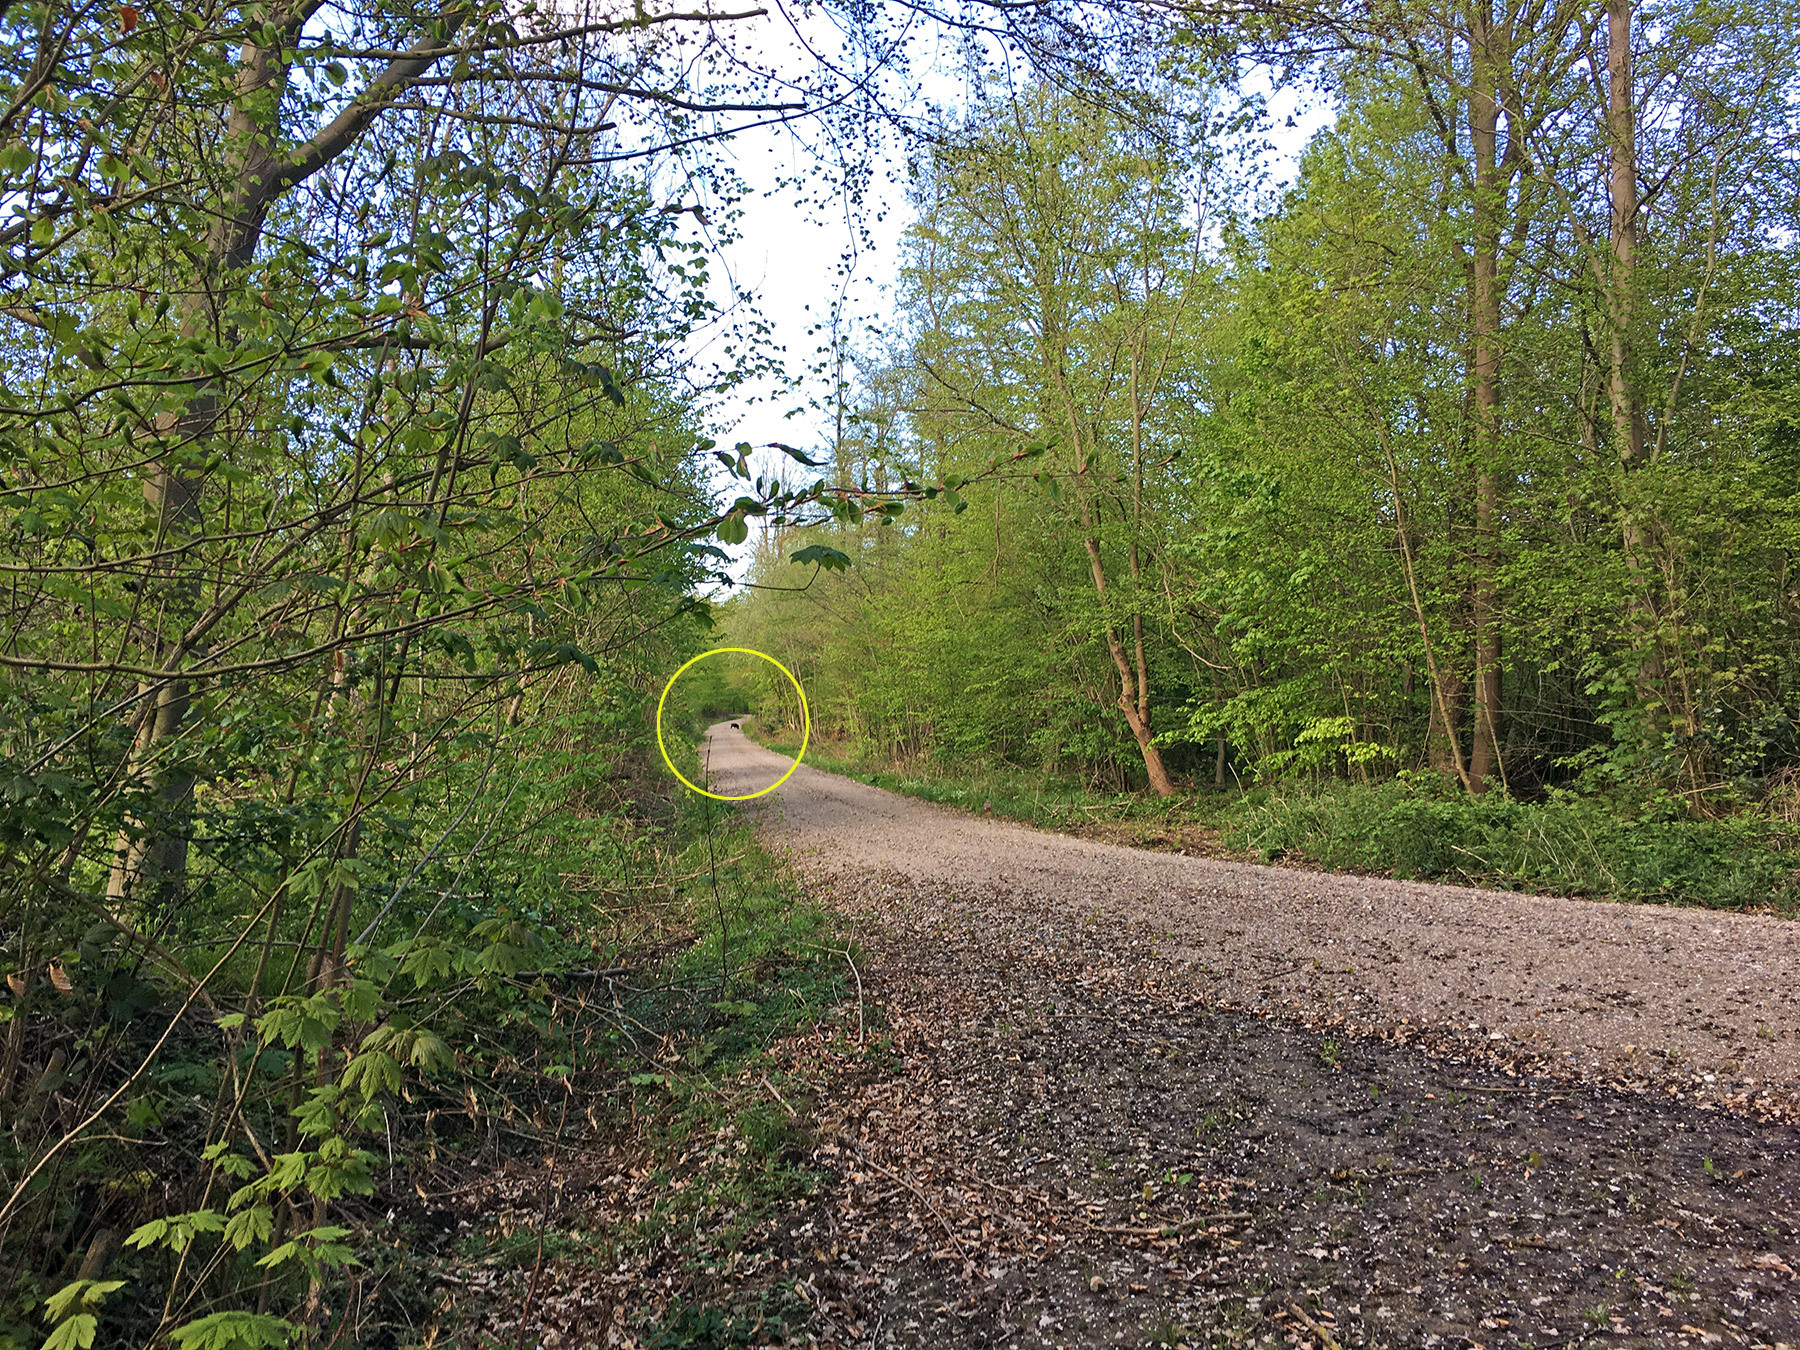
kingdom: Animalia
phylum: Chordata
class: Mammalia
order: Artiodactyla
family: Suidae
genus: Sus
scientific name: Sus scrofa
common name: Wild boar
